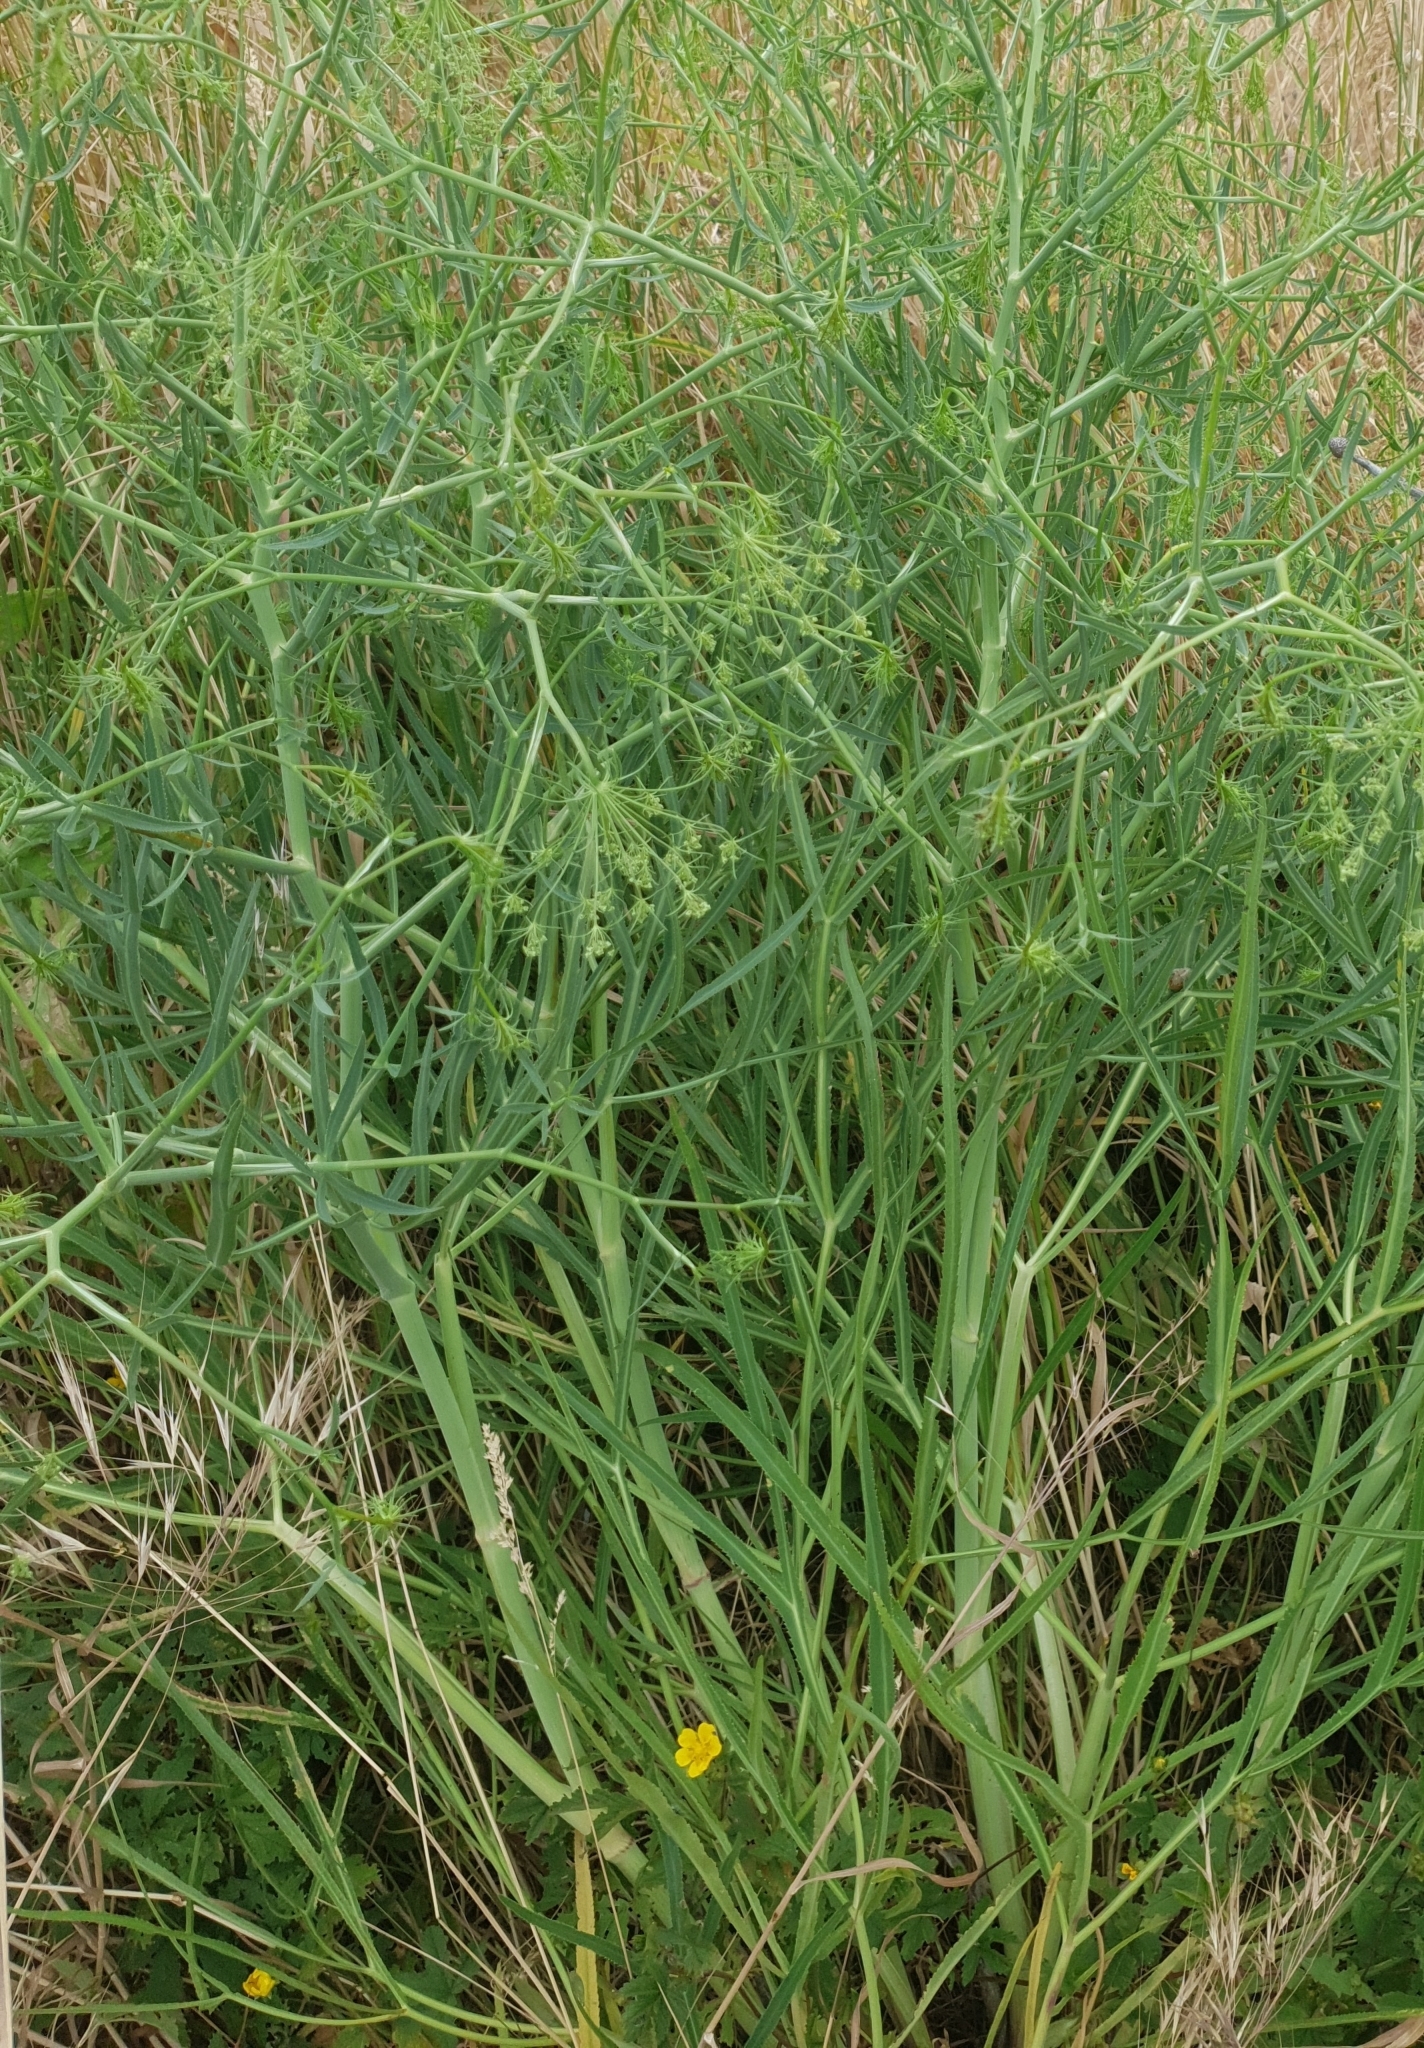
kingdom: Plantae
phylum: Tracheophyta
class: Magnoliopsida
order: Apiales
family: Apiaceae
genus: Falcaria
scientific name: Falcaria vulgaris
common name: Longleaf
